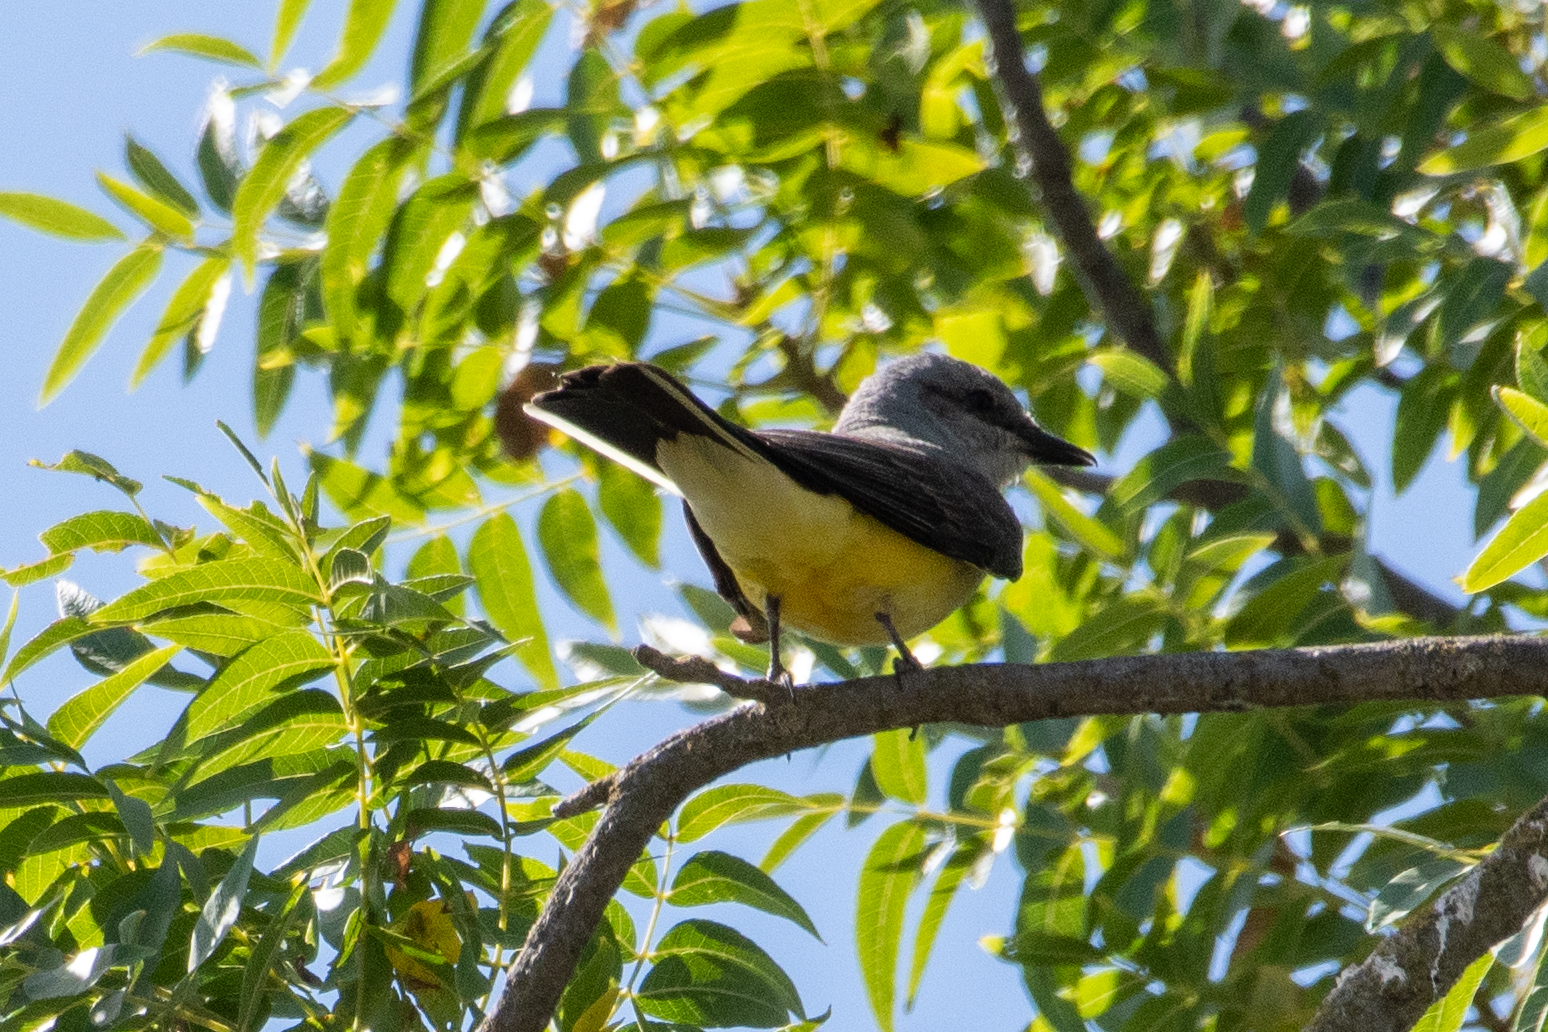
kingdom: Animalia
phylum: Chordata
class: Aves
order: Passeriformes
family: Tyrannidae
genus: Tyrannus
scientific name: Tyrannus verticalis
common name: Western kingbird
